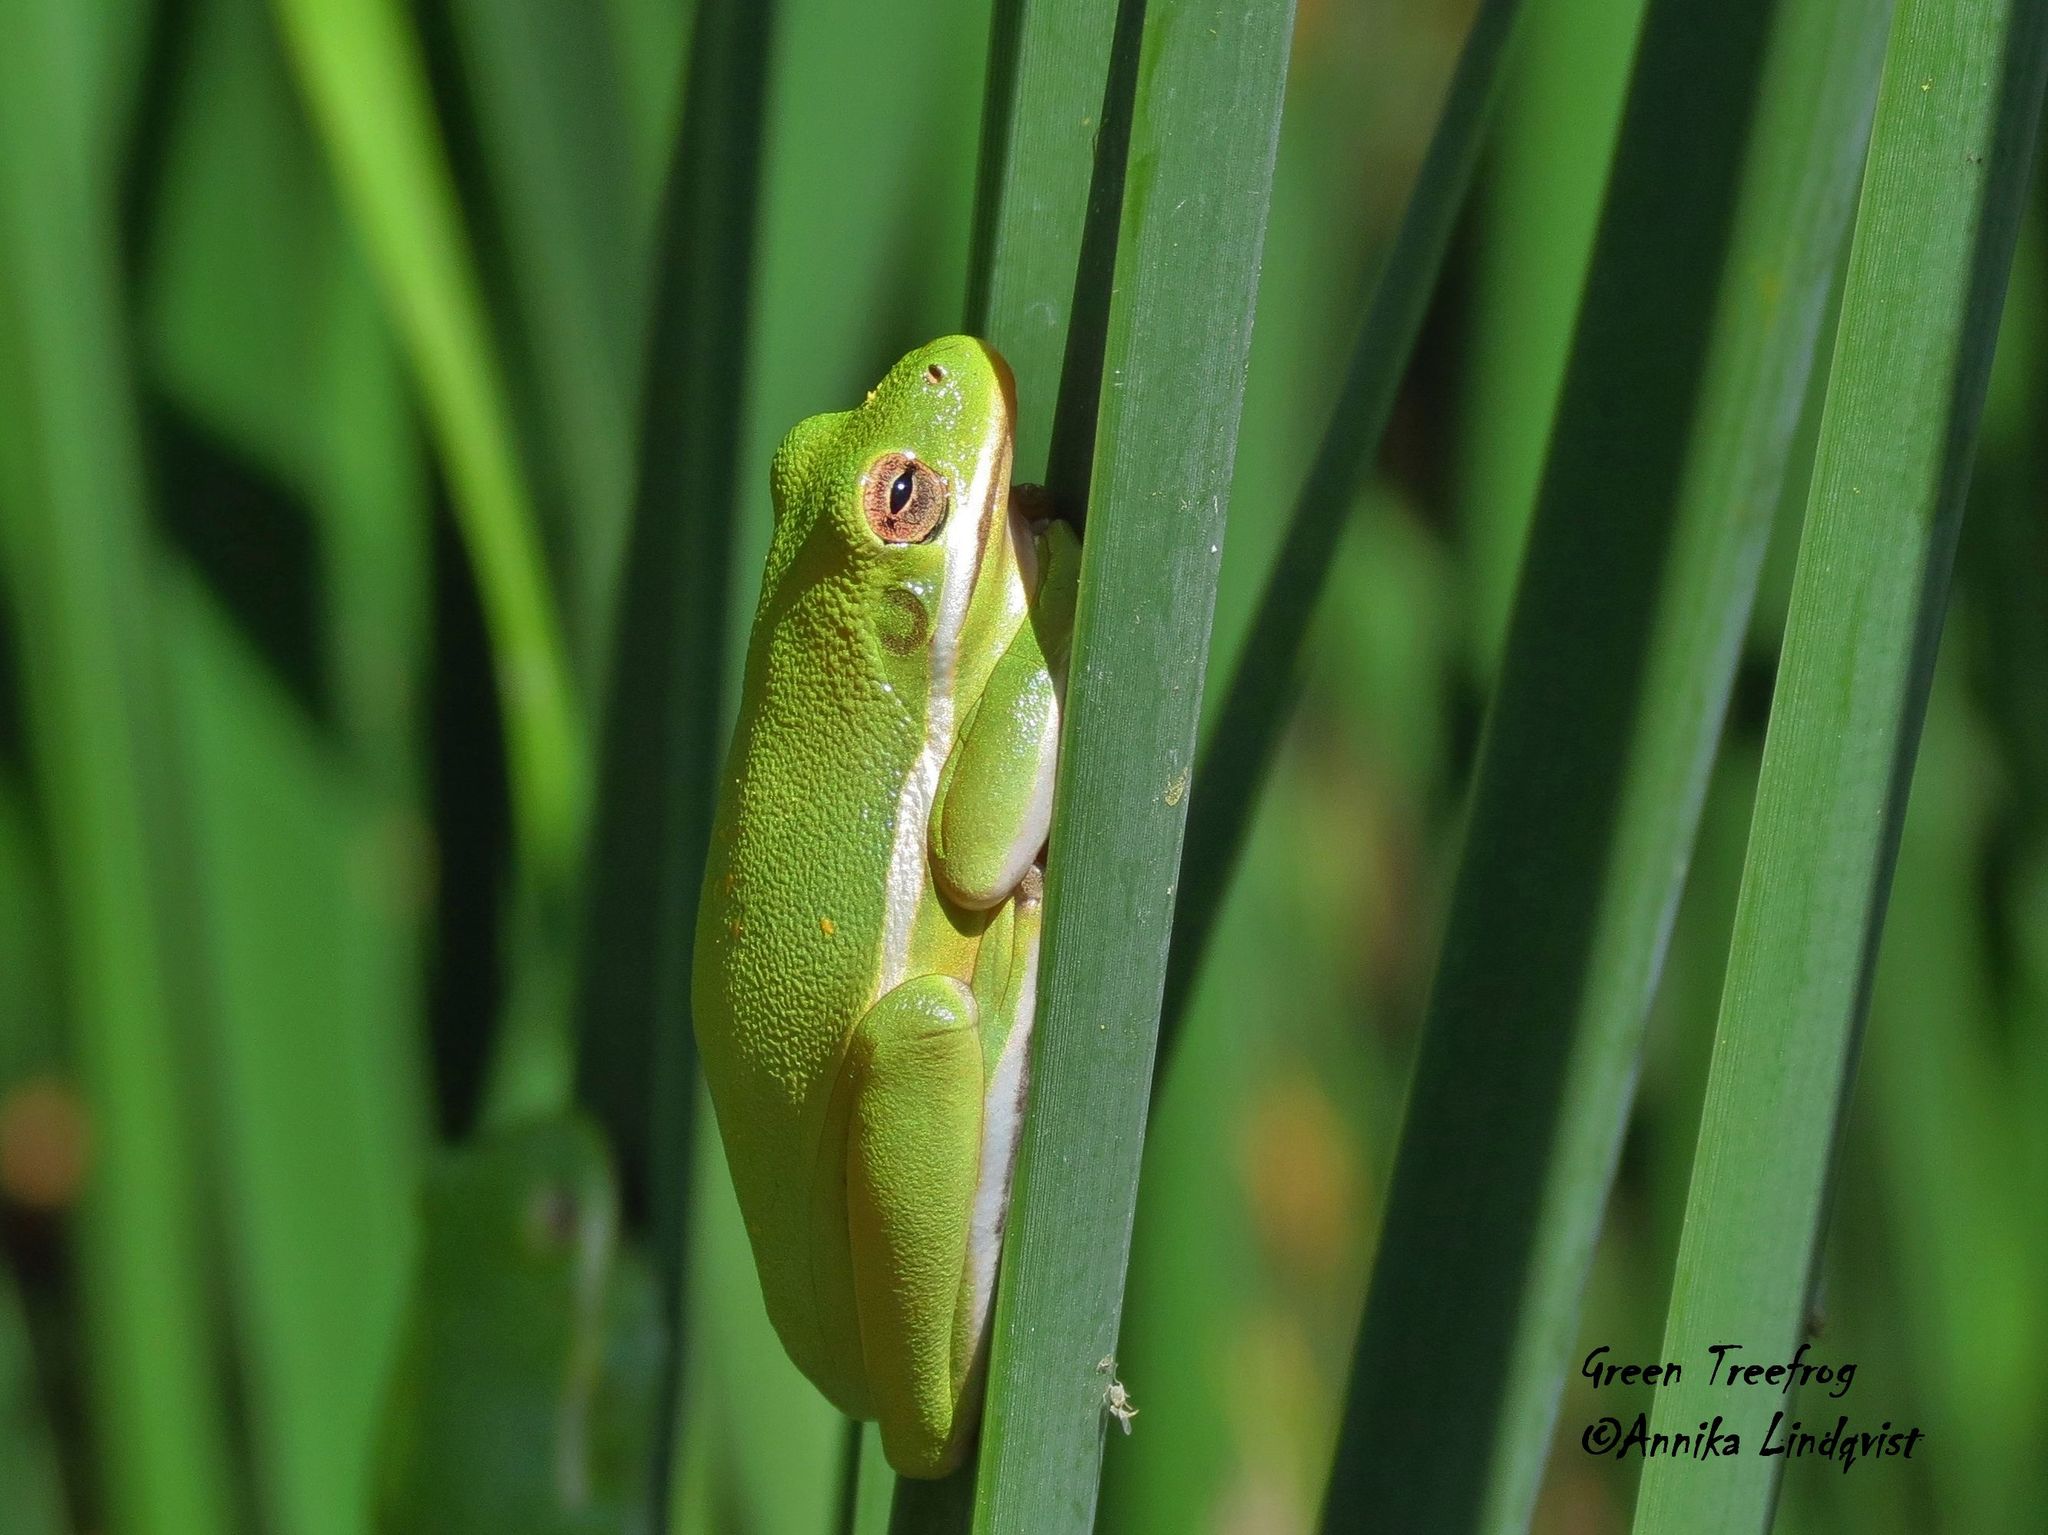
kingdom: Animalia
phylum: Chordata
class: Amphibia
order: Anura
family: Hylidae
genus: Dryophytes
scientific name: Dryophytes cinereus
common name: Green treefrog
